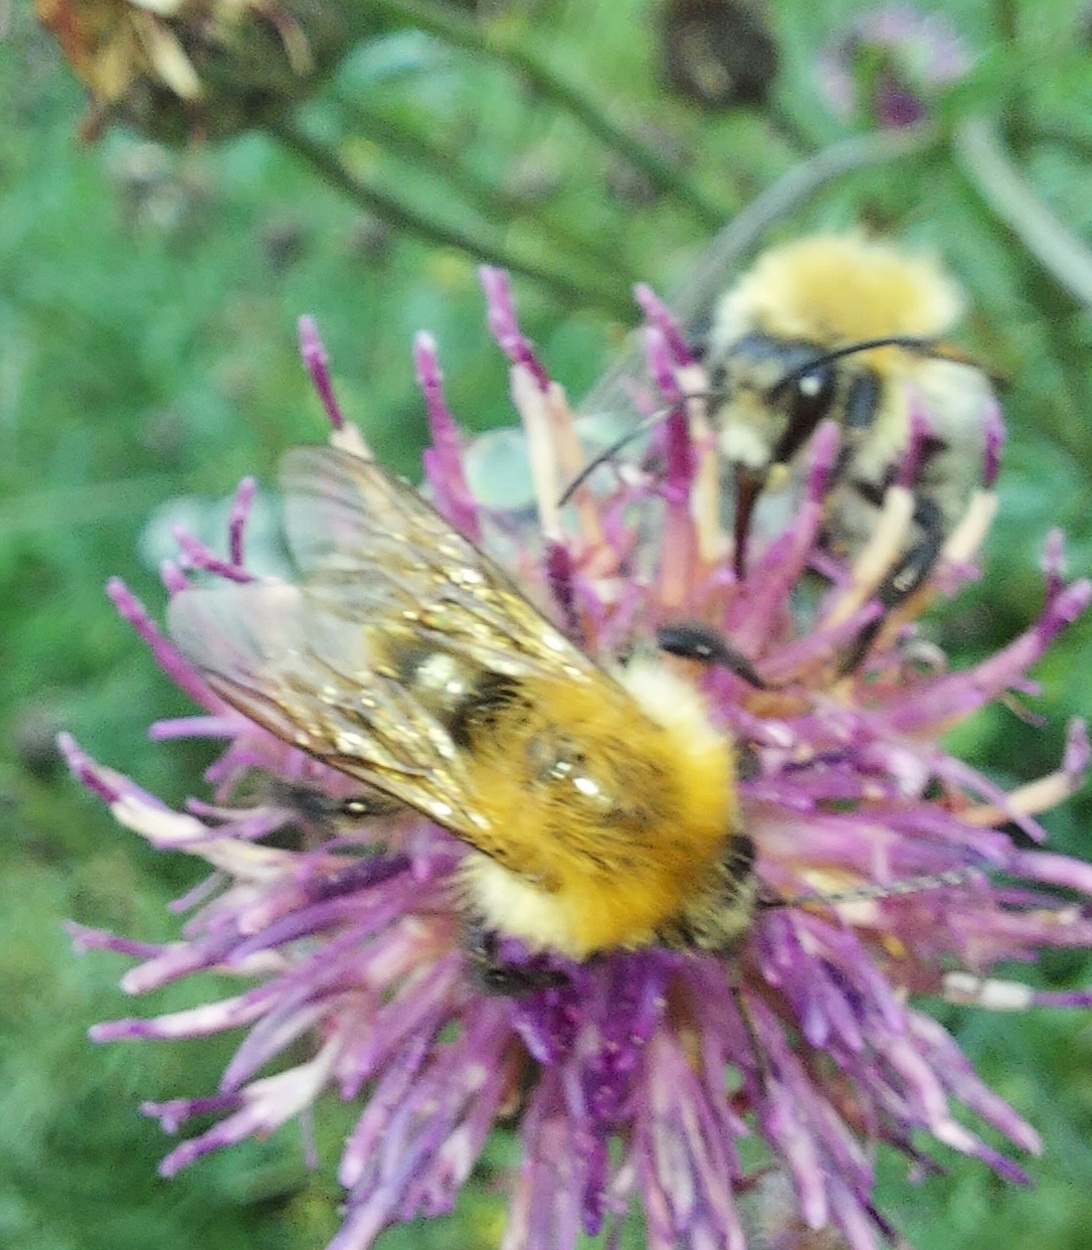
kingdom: Animalia
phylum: Arthropoda
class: Insecta
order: Hymenoptera
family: Apidae
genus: Bombus
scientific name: Bombus pascuorum
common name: Common carder bee
